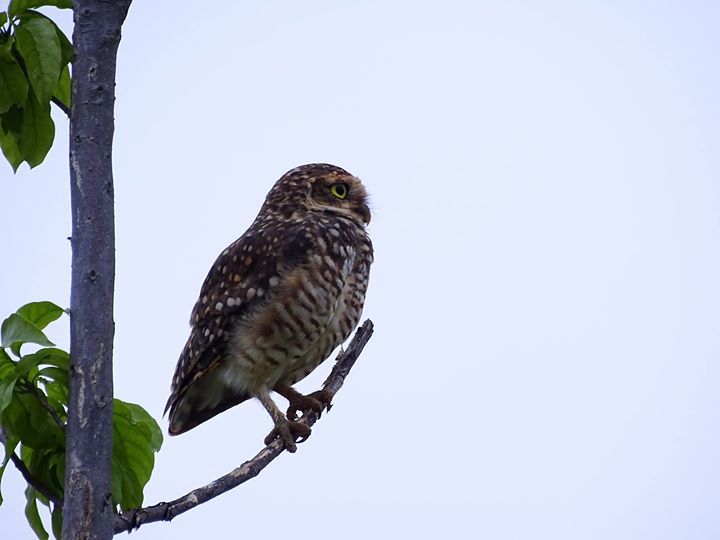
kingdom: Animalia
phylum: Chordata
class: Aves
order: Strigiformes
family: Strigidae
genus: Athene
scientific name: Athene cunicularia
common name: Burrowing owl
